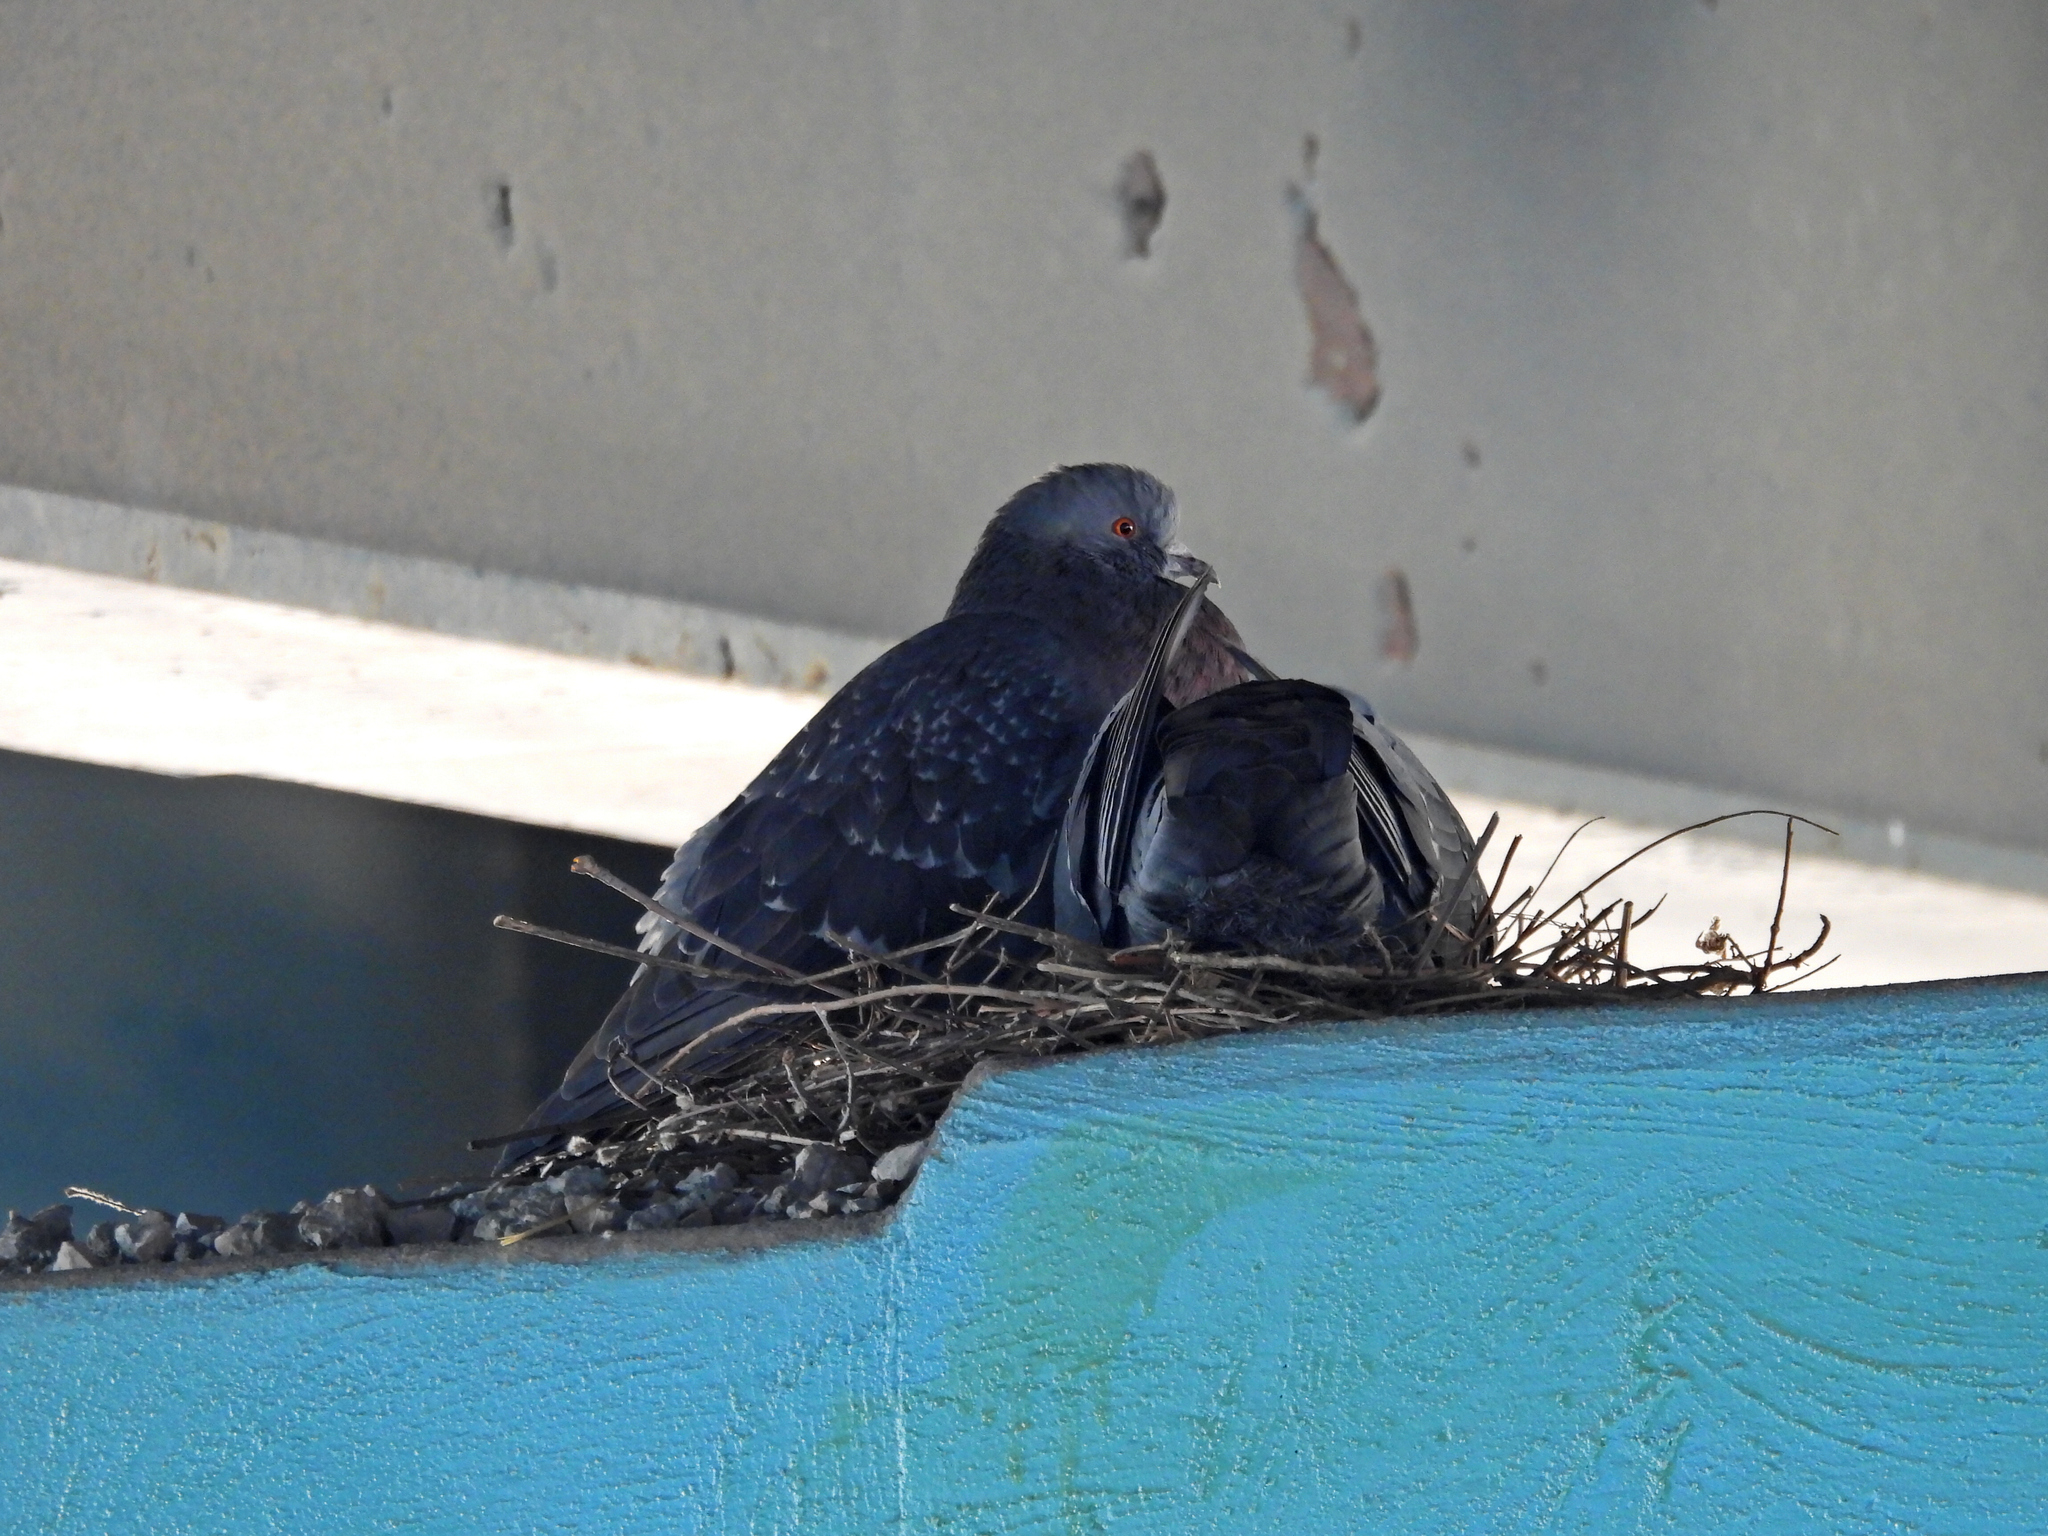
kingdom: Animalia
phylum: Chordata
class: Aves
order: Columbiformes
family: Columbidae
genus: Columba
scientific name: Columba livia
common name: Rock pigeon
